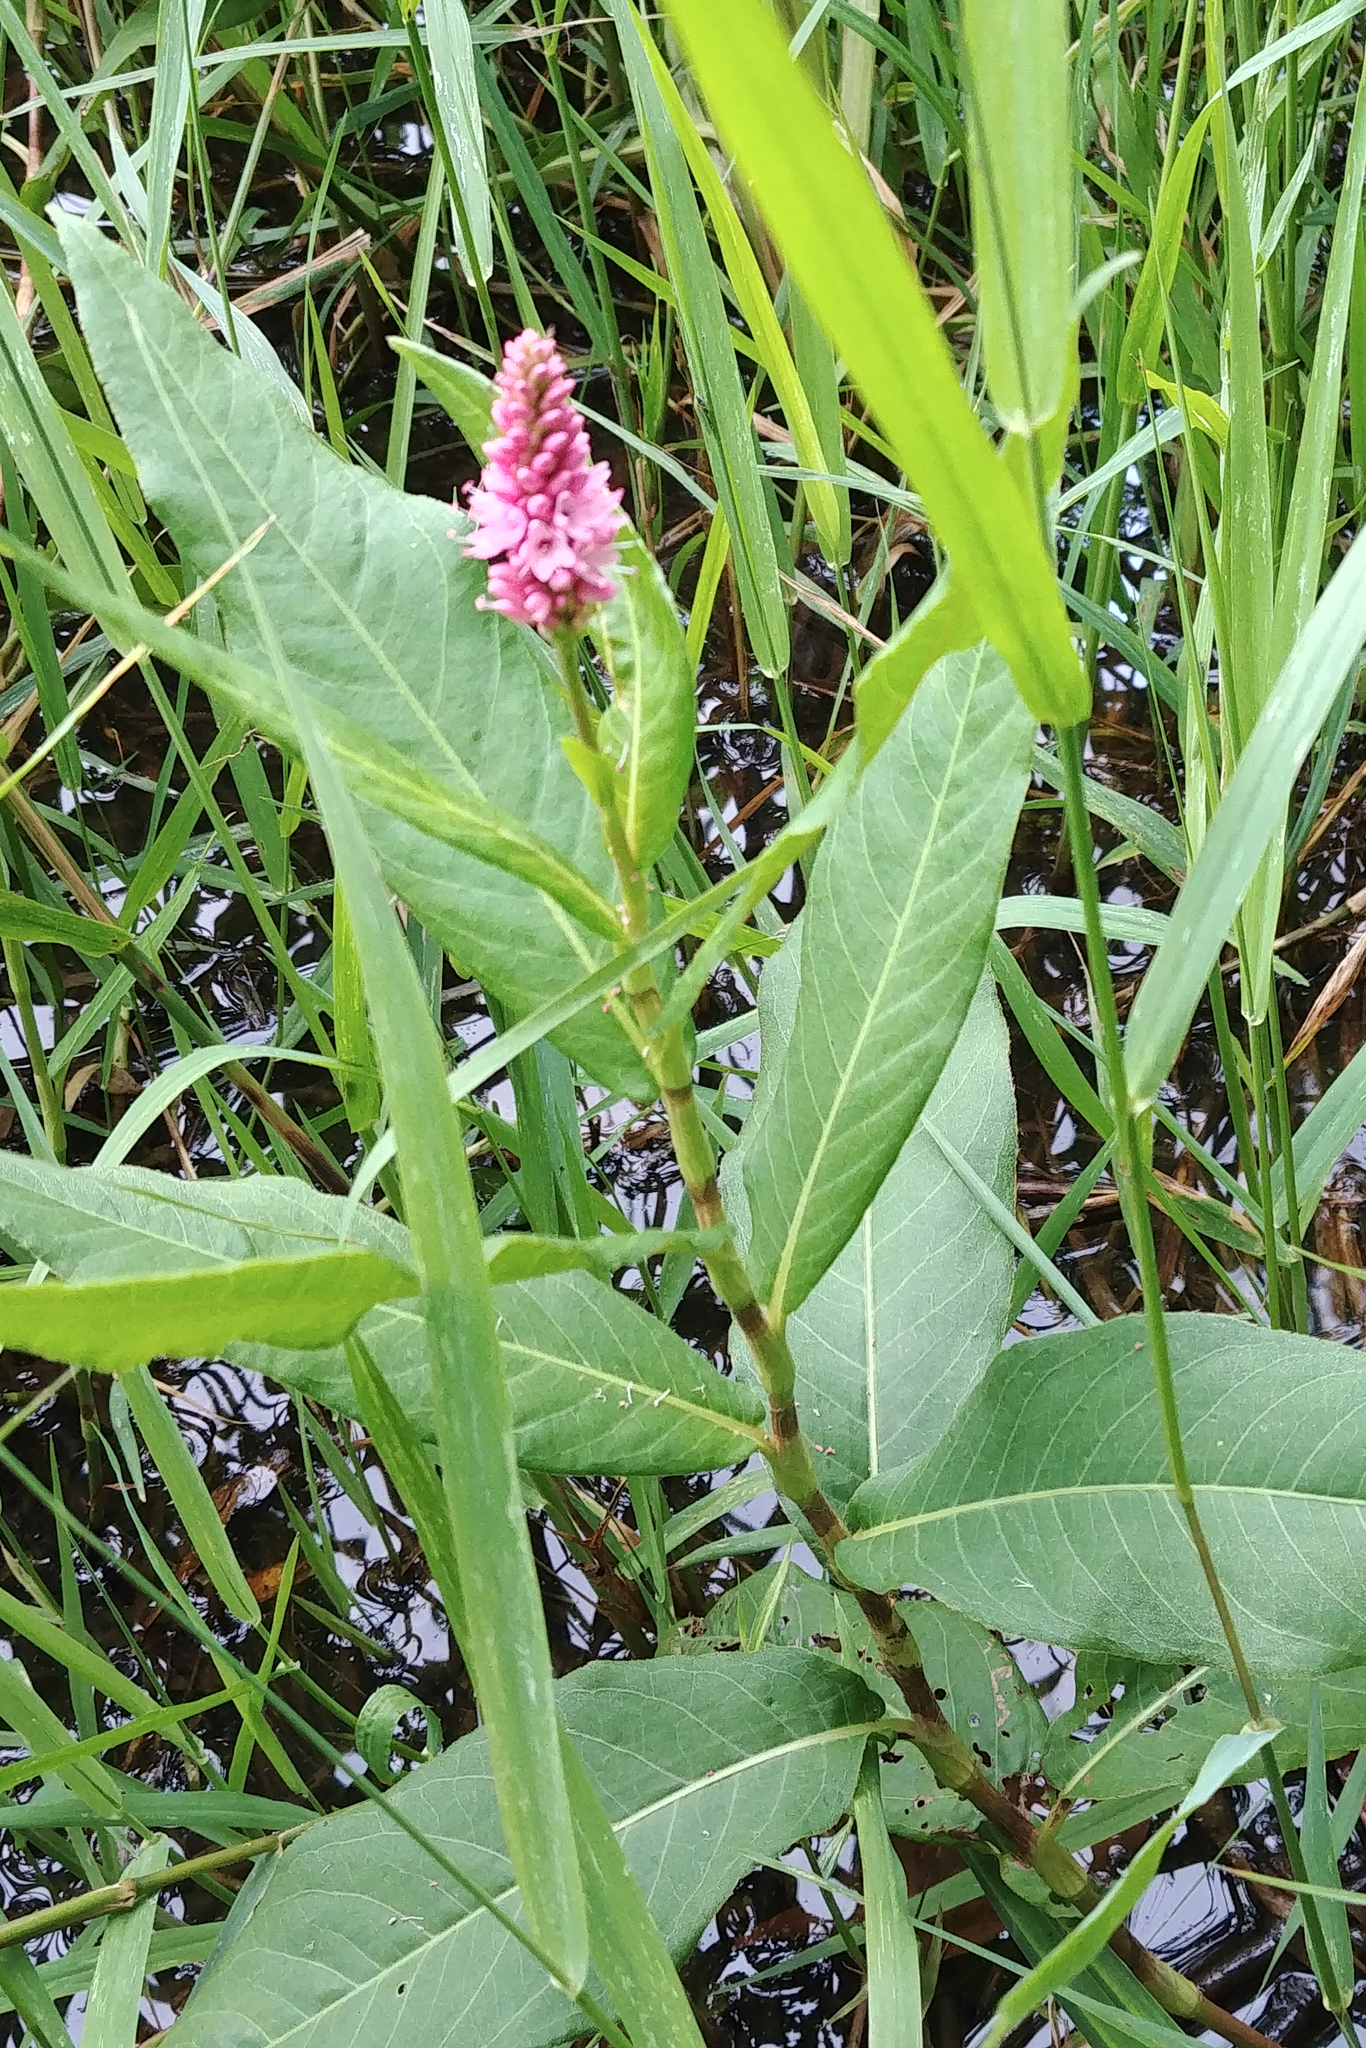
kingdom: Plantae
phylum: Tracheophyta
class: Magnoliopsida
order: Caryophyllales
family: Polygonaceae
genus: Persicaria
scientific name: Persicaria amphibia
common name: Amphibious bistort
